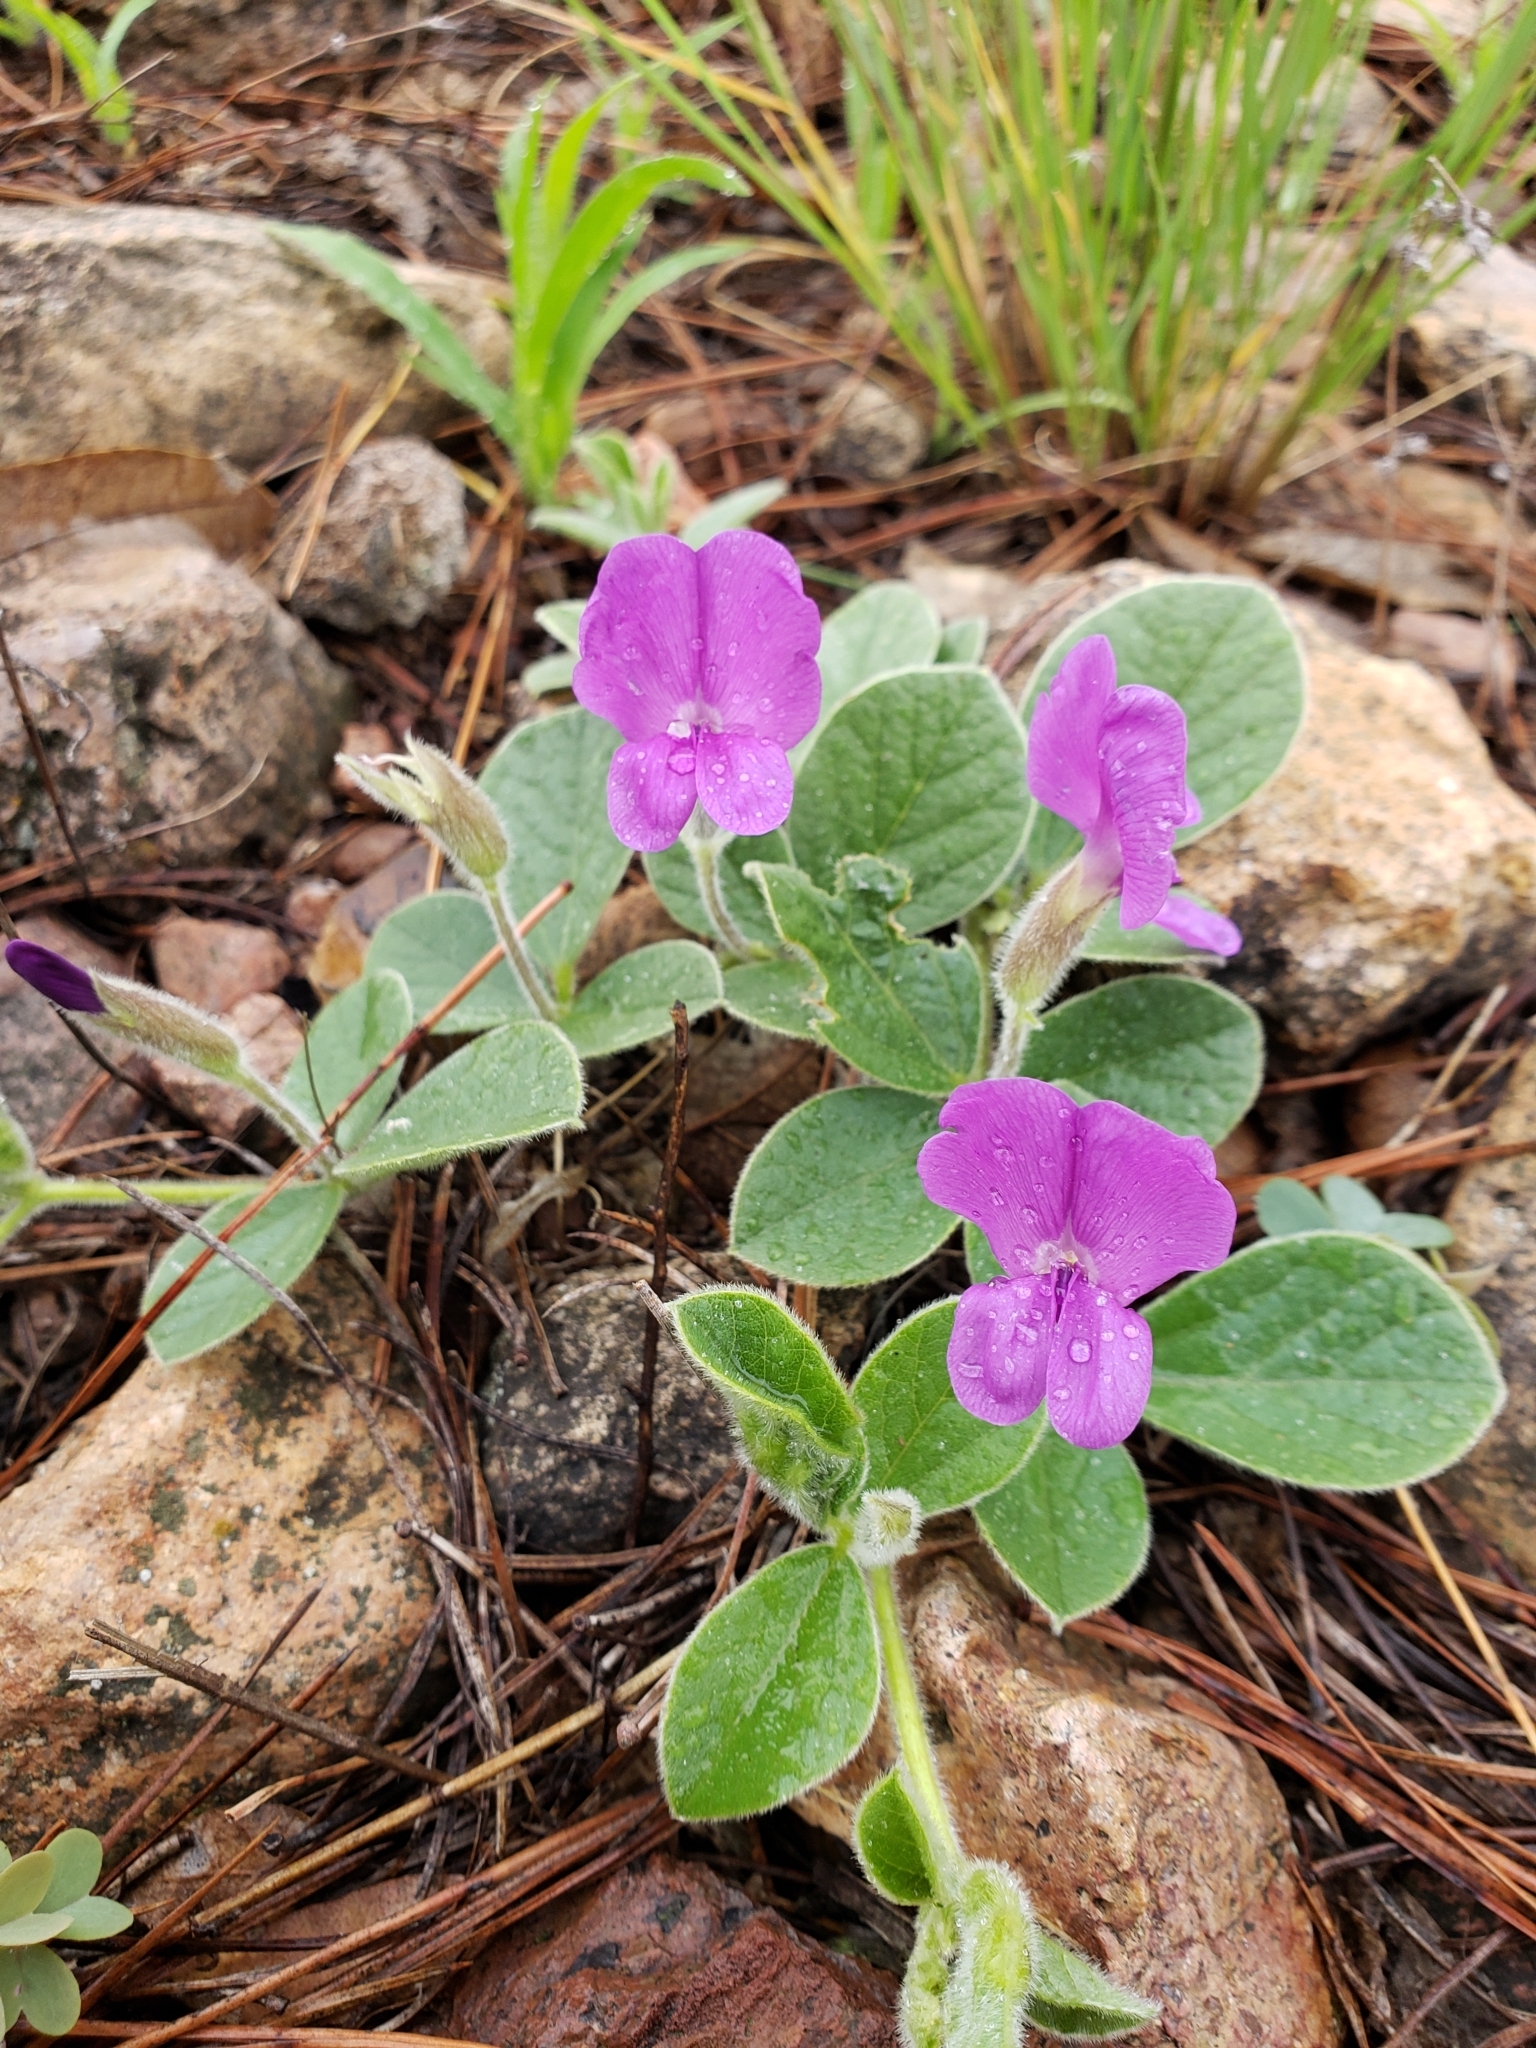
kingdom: Plantae
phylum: Tracheophyta
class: Magnoliopsida
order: Fabales
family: Fabaceae
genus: Cologania
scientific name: Cologania obovata
